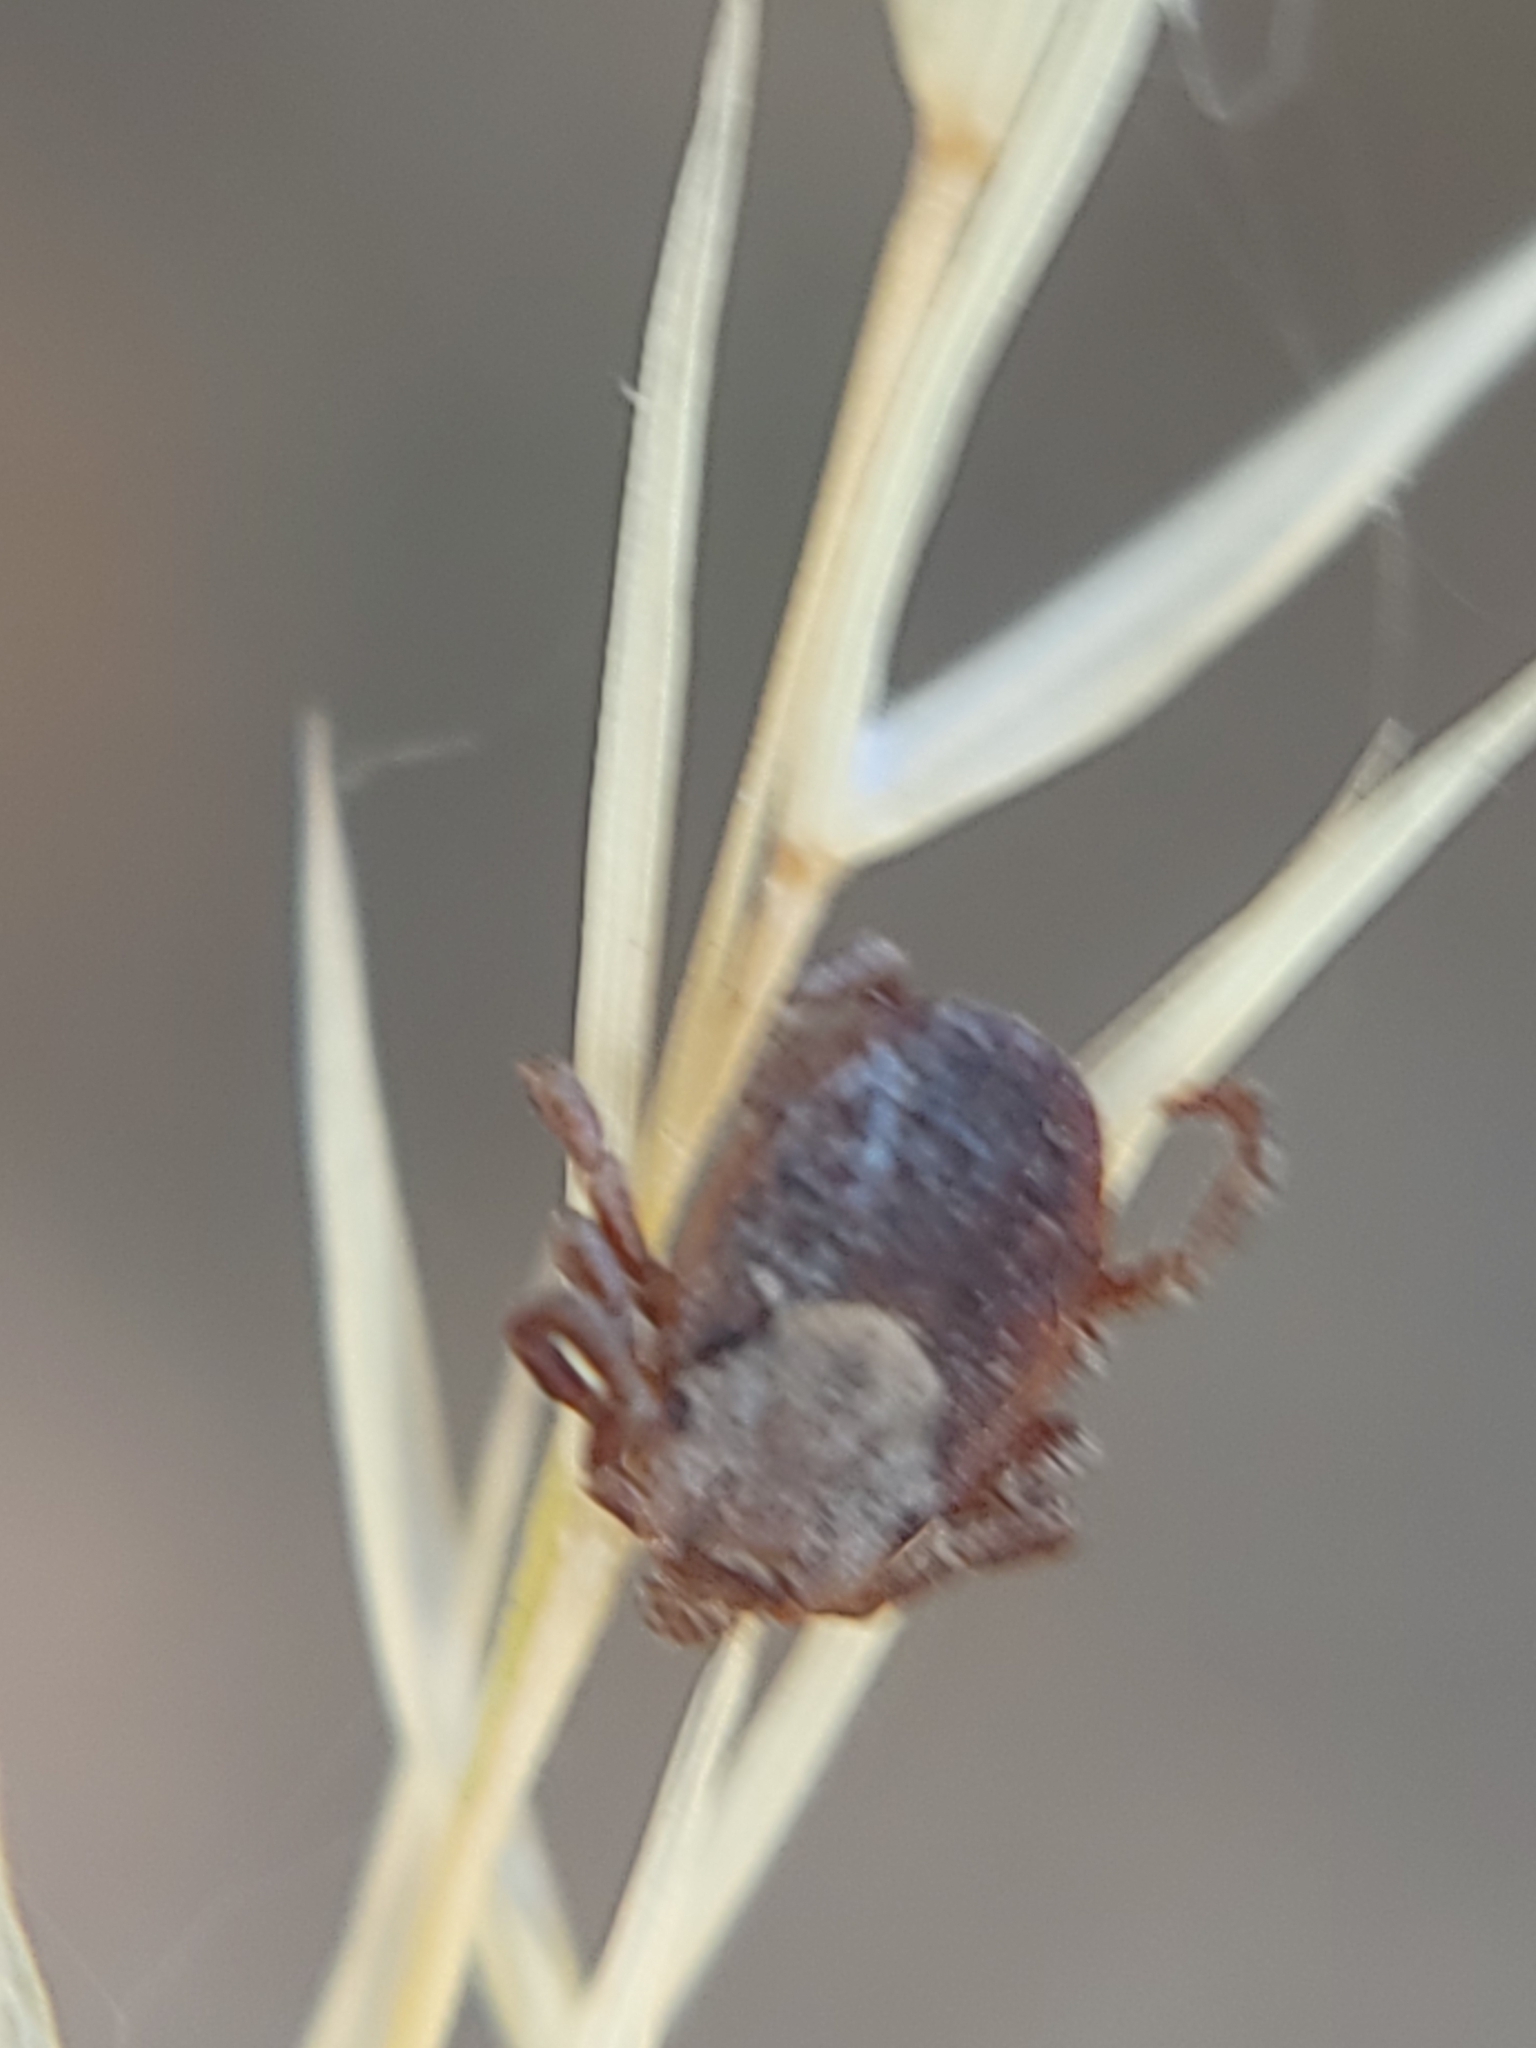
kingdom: Animalia
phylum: Arthropoda
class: Arachnida
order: Ixodida
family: Ixodidae
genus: Dermacentor
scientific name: Dermacentor occidentalis
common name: Net tick
